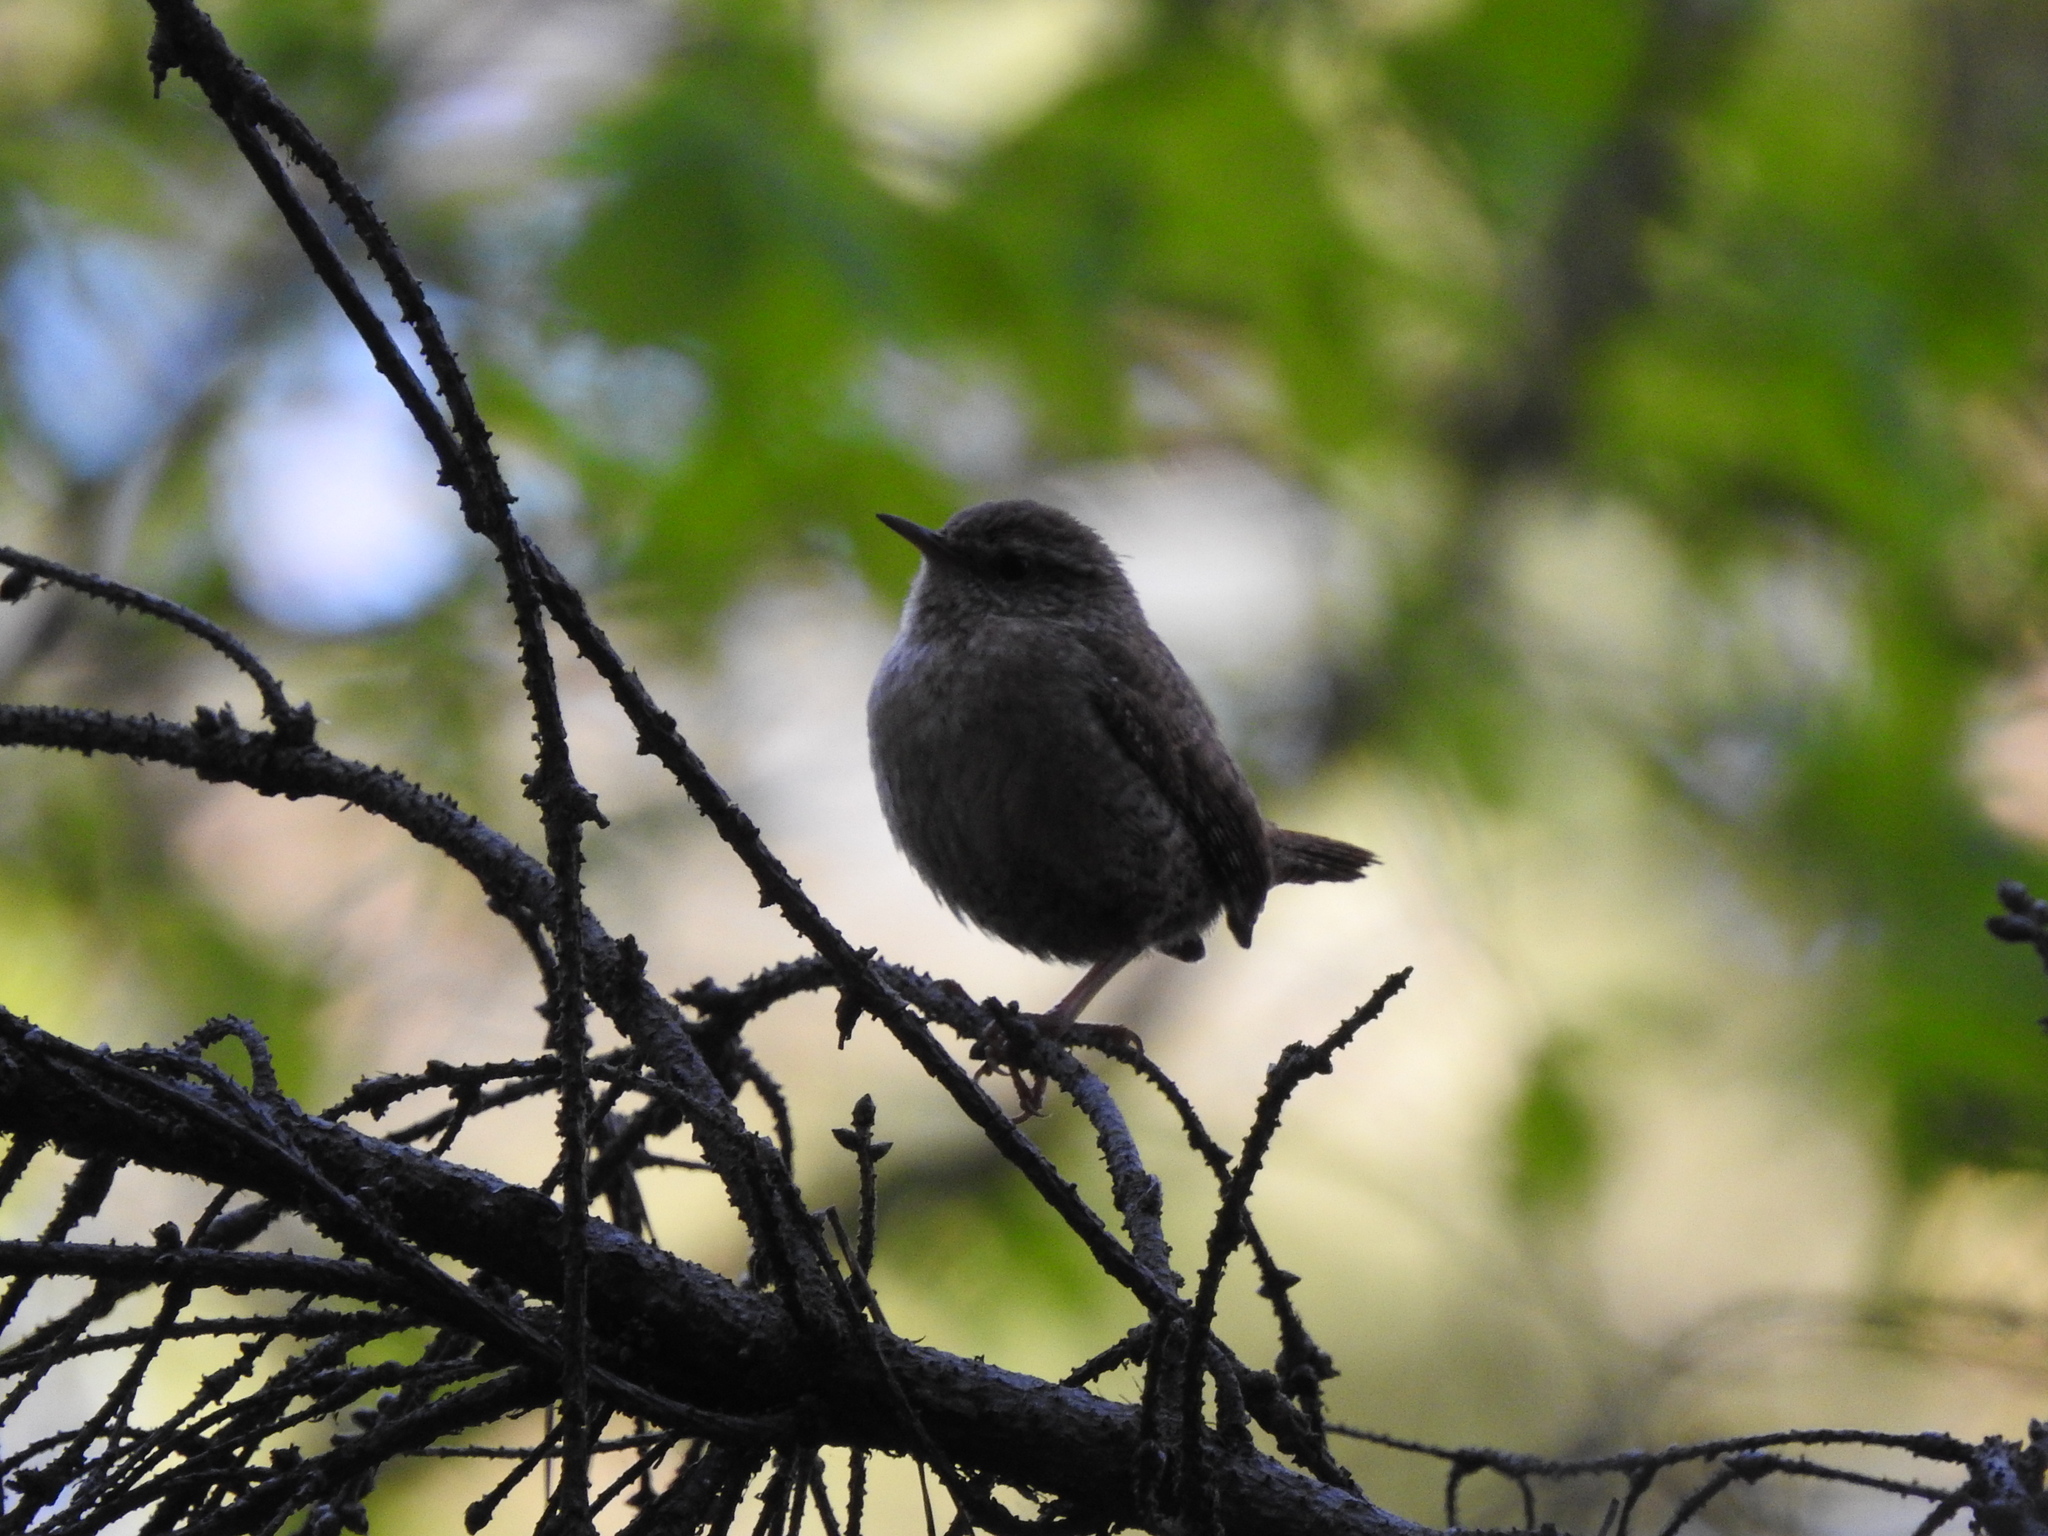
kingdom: Animalia
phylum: Chordata
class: Aves
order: Passeriformes
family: Troglodytidae
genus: Troglodytes
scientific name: Troglodytes troglodytes
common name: Eurasian wren
